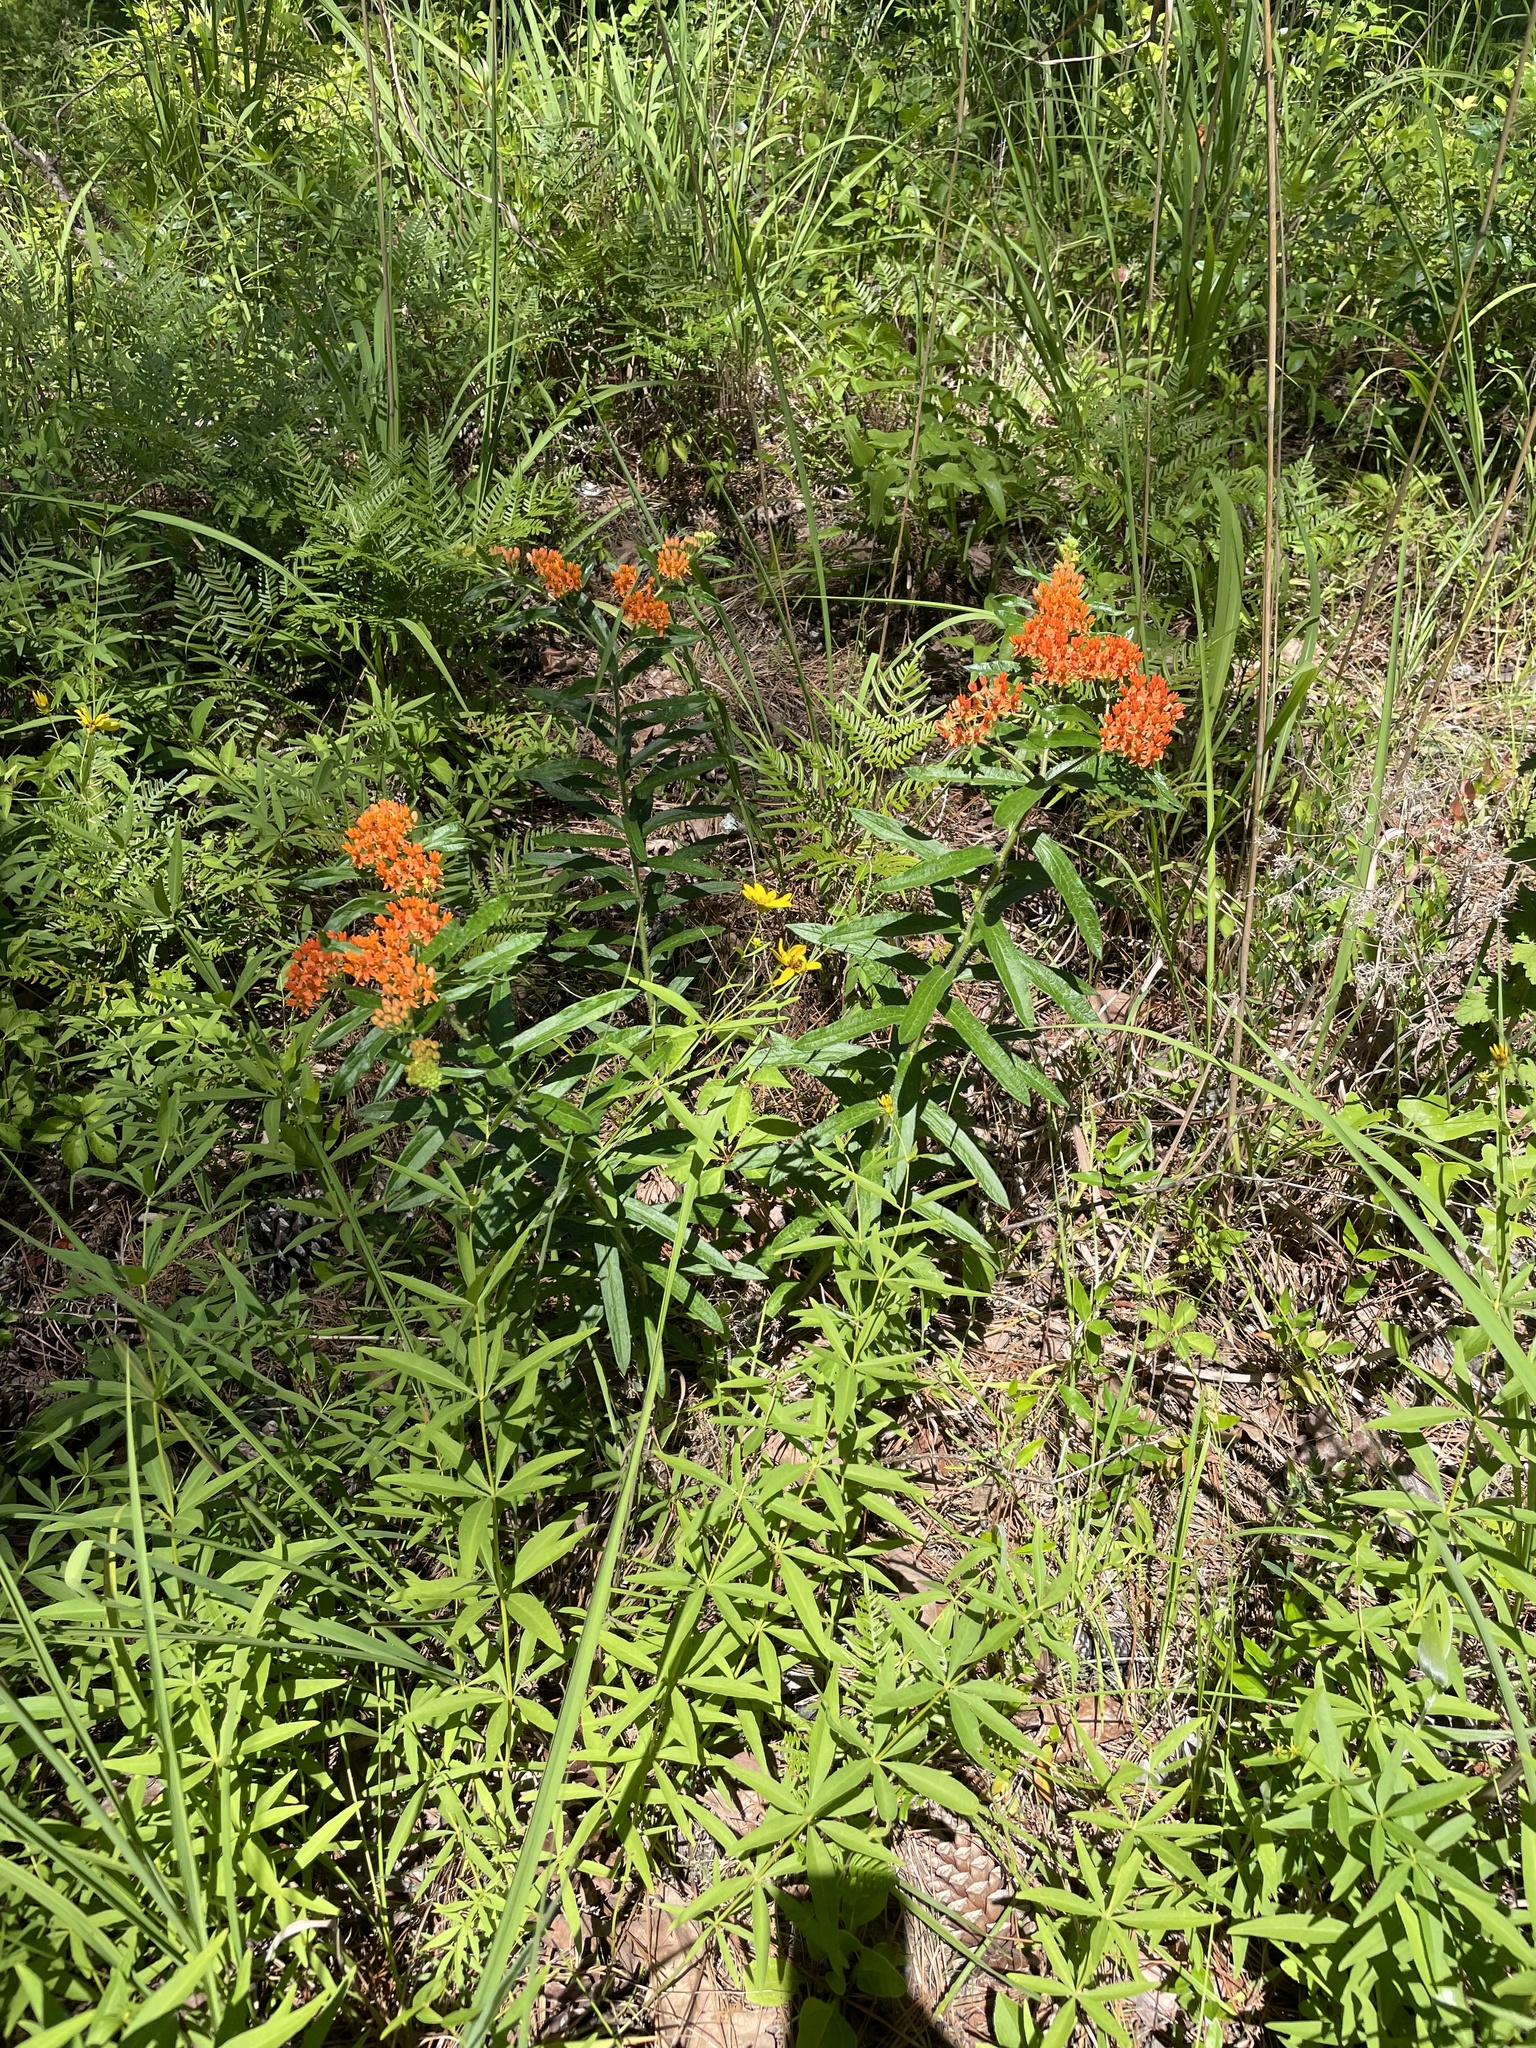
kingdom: Plantae
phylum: Tracheophyta
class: Magnoliopsida
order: Gentianales
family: Apocynaceae
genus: Asclepias
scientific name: Asclepias tuberosa
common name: Butterfly milkweed
